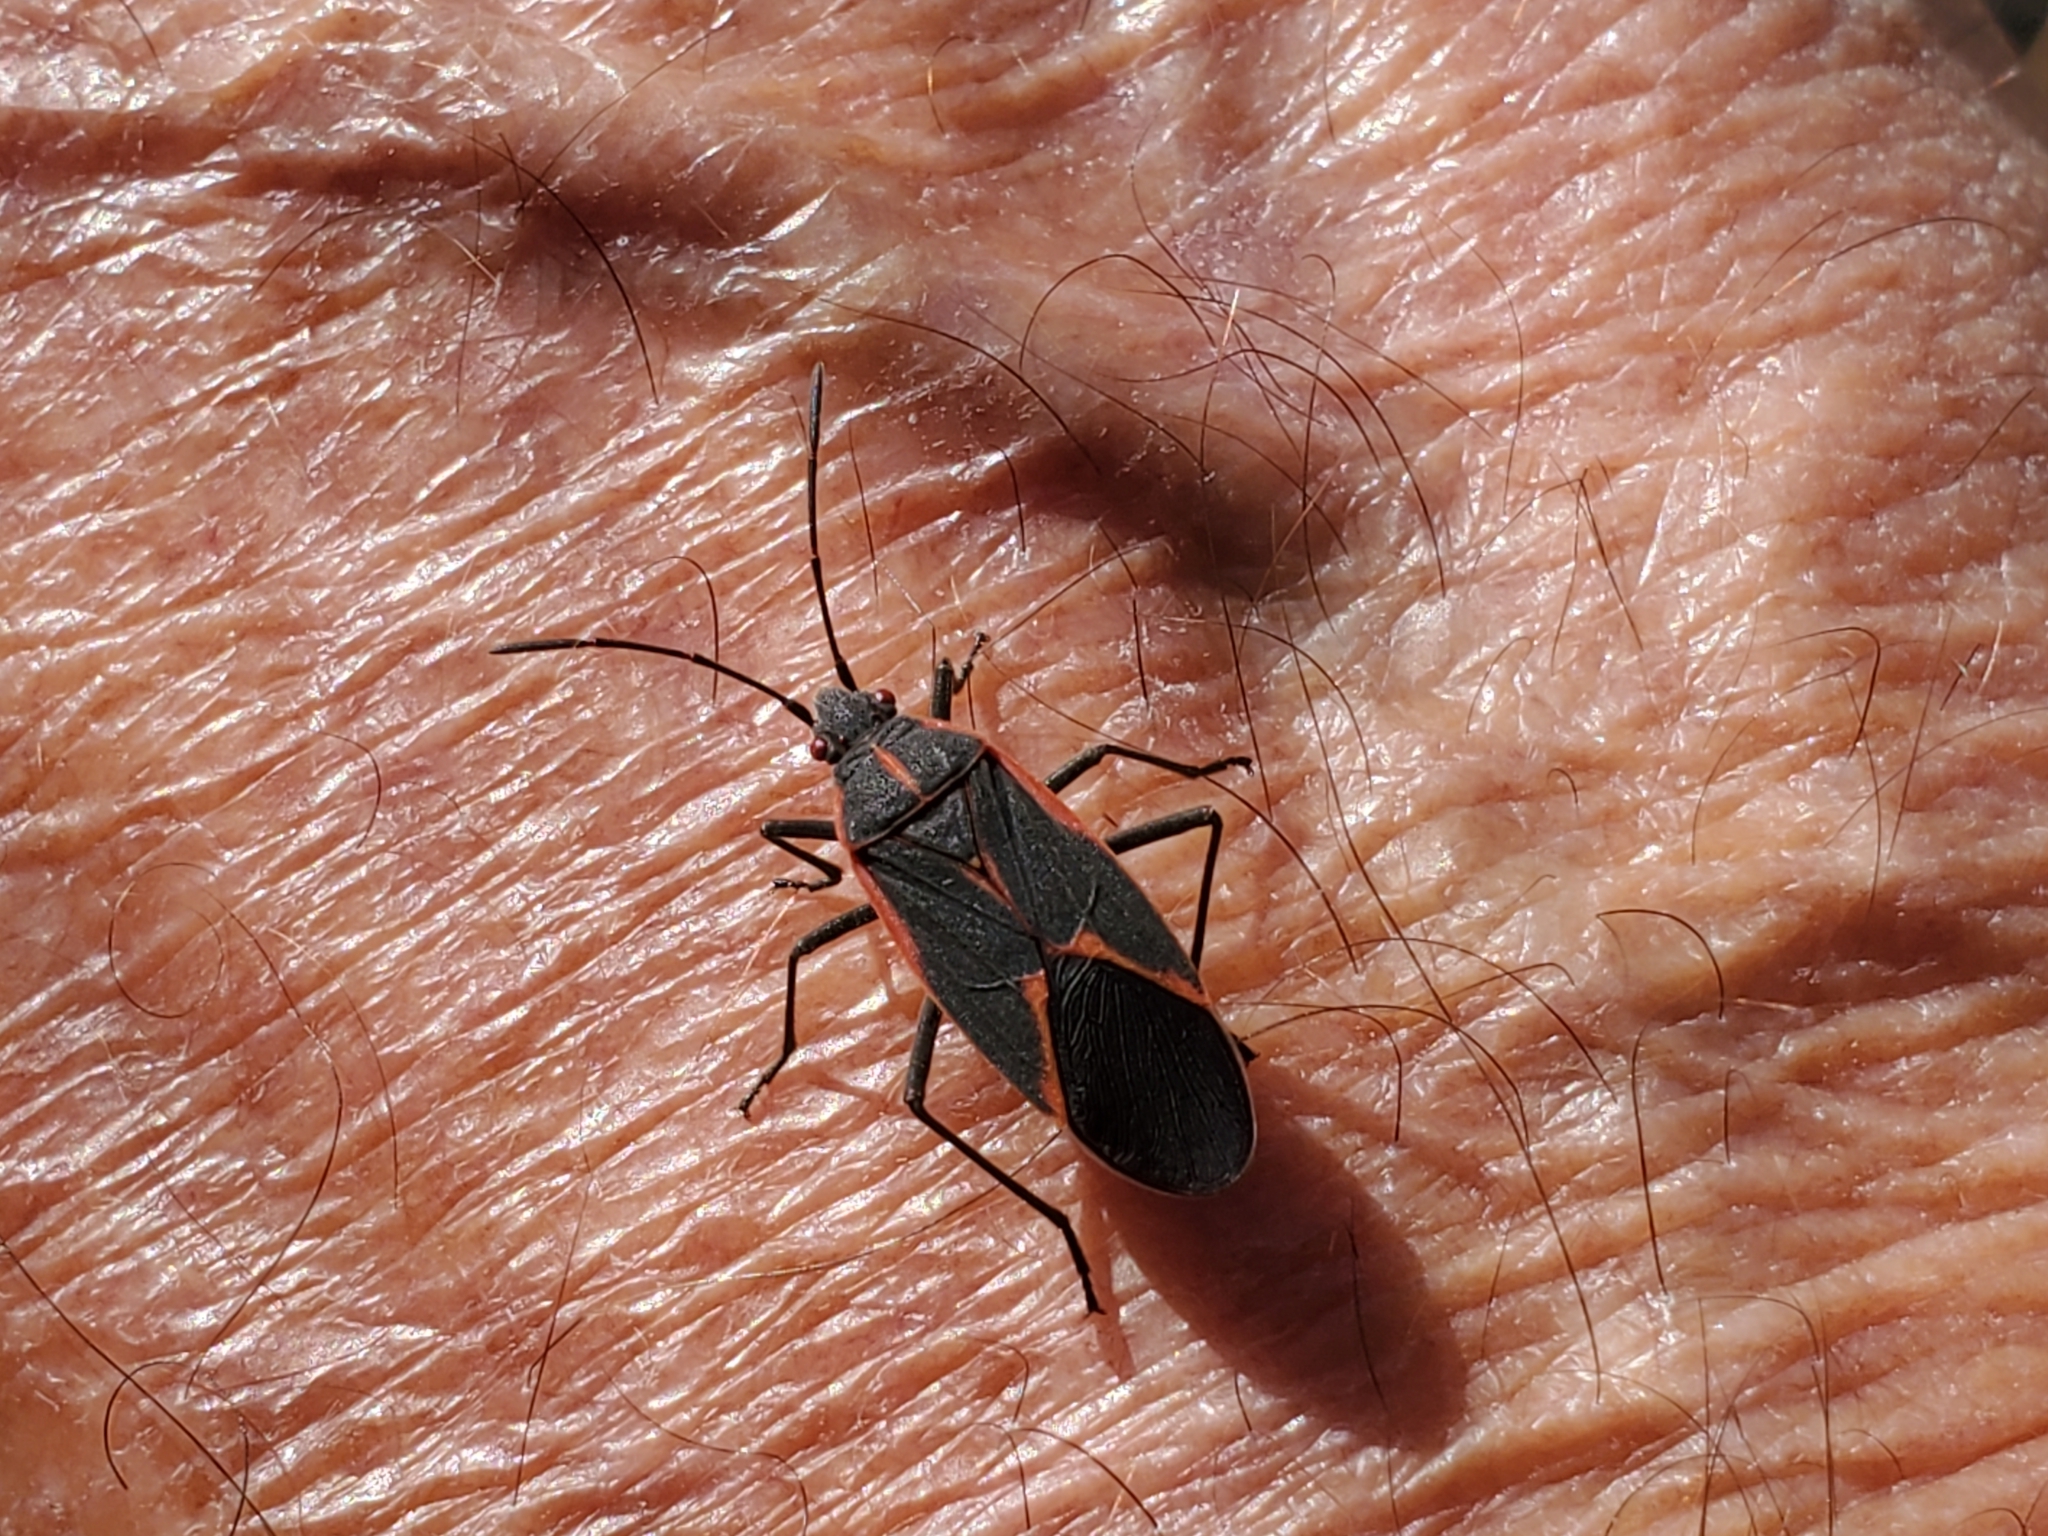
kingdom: Animalia
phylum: Arthropoda
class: Insecta
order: Hemiptera
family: Rhopalidae
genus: Boisea
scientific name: Boisea trivittata
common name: Boxelder bug
